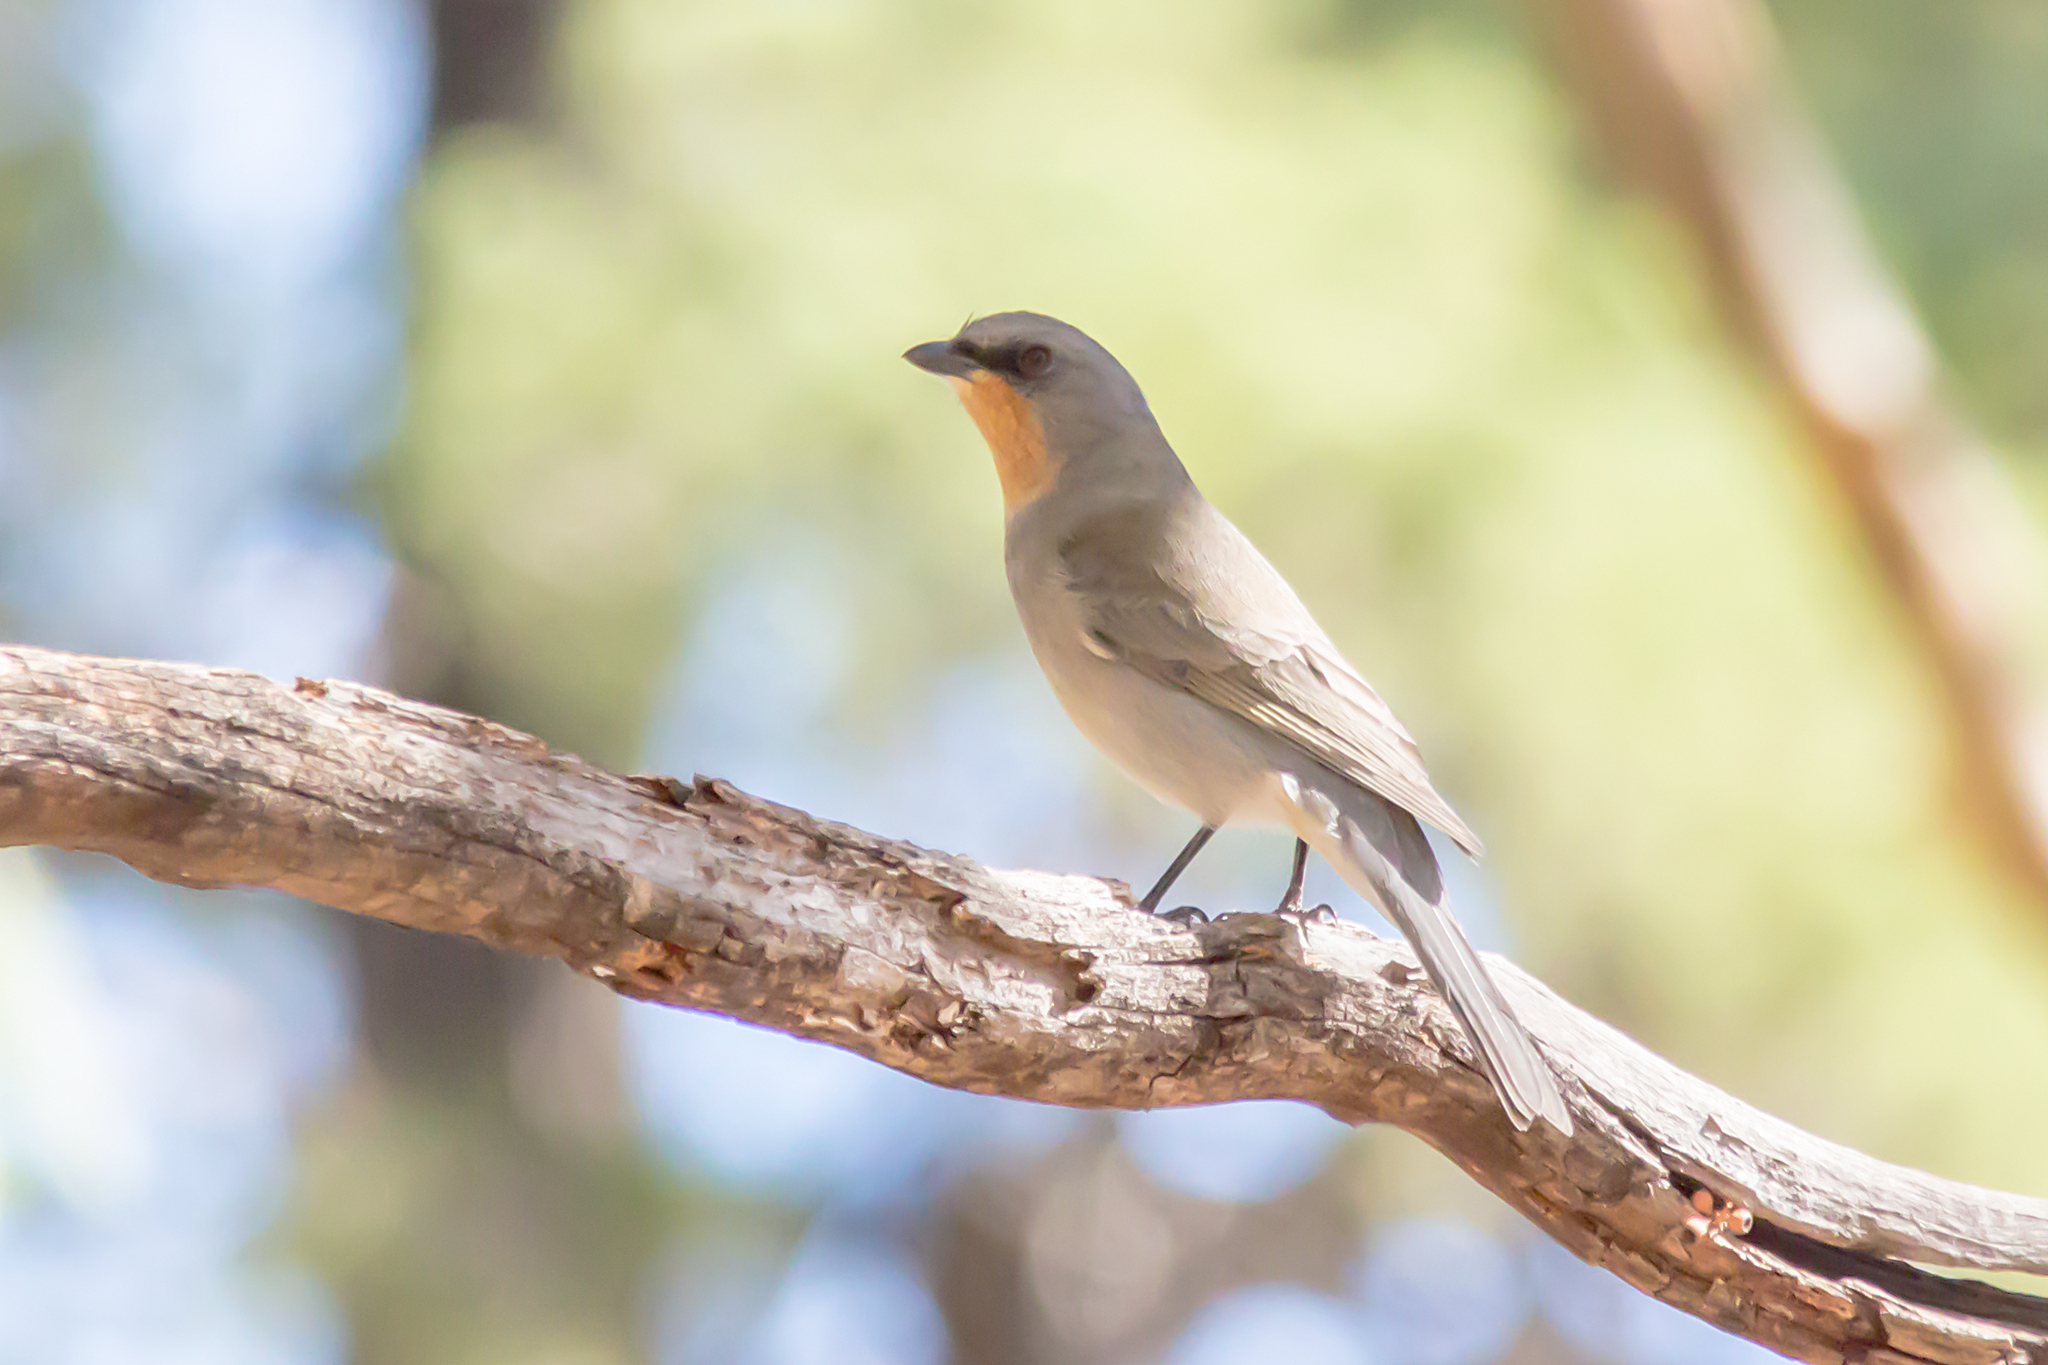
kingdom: Animalia
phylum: Chordata
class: Aves
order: Passeriformes
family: Pachycephalidae
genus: Pachycephala
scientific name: Pachycephala inornata
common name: Gilbert's whistler
